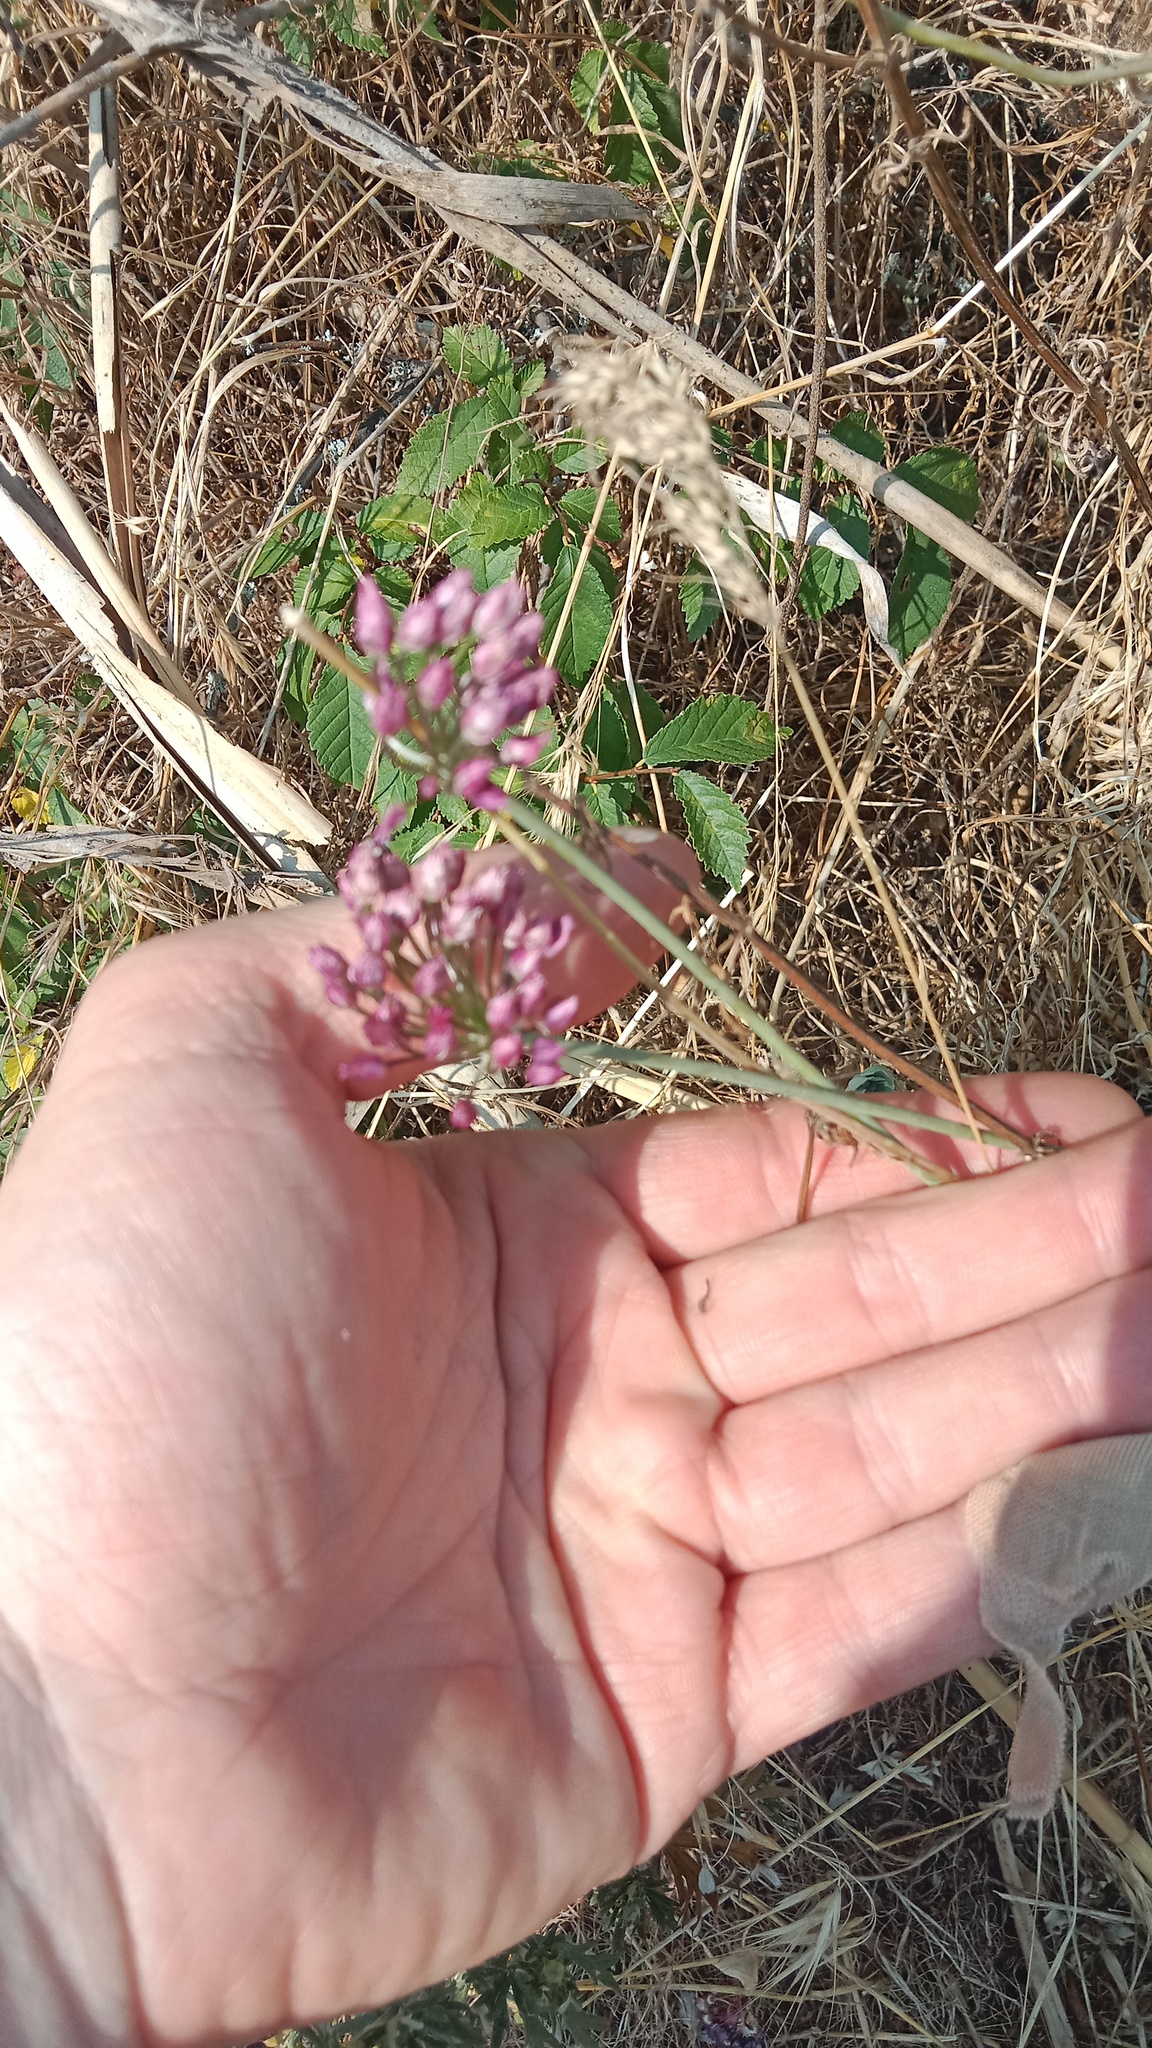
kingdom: Plantae
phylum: Tracheophyta
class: Liliopsida
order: Asparagales
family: Amaryllidaceae
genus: Allium
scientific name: Allium rotundum
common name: Sand leek
